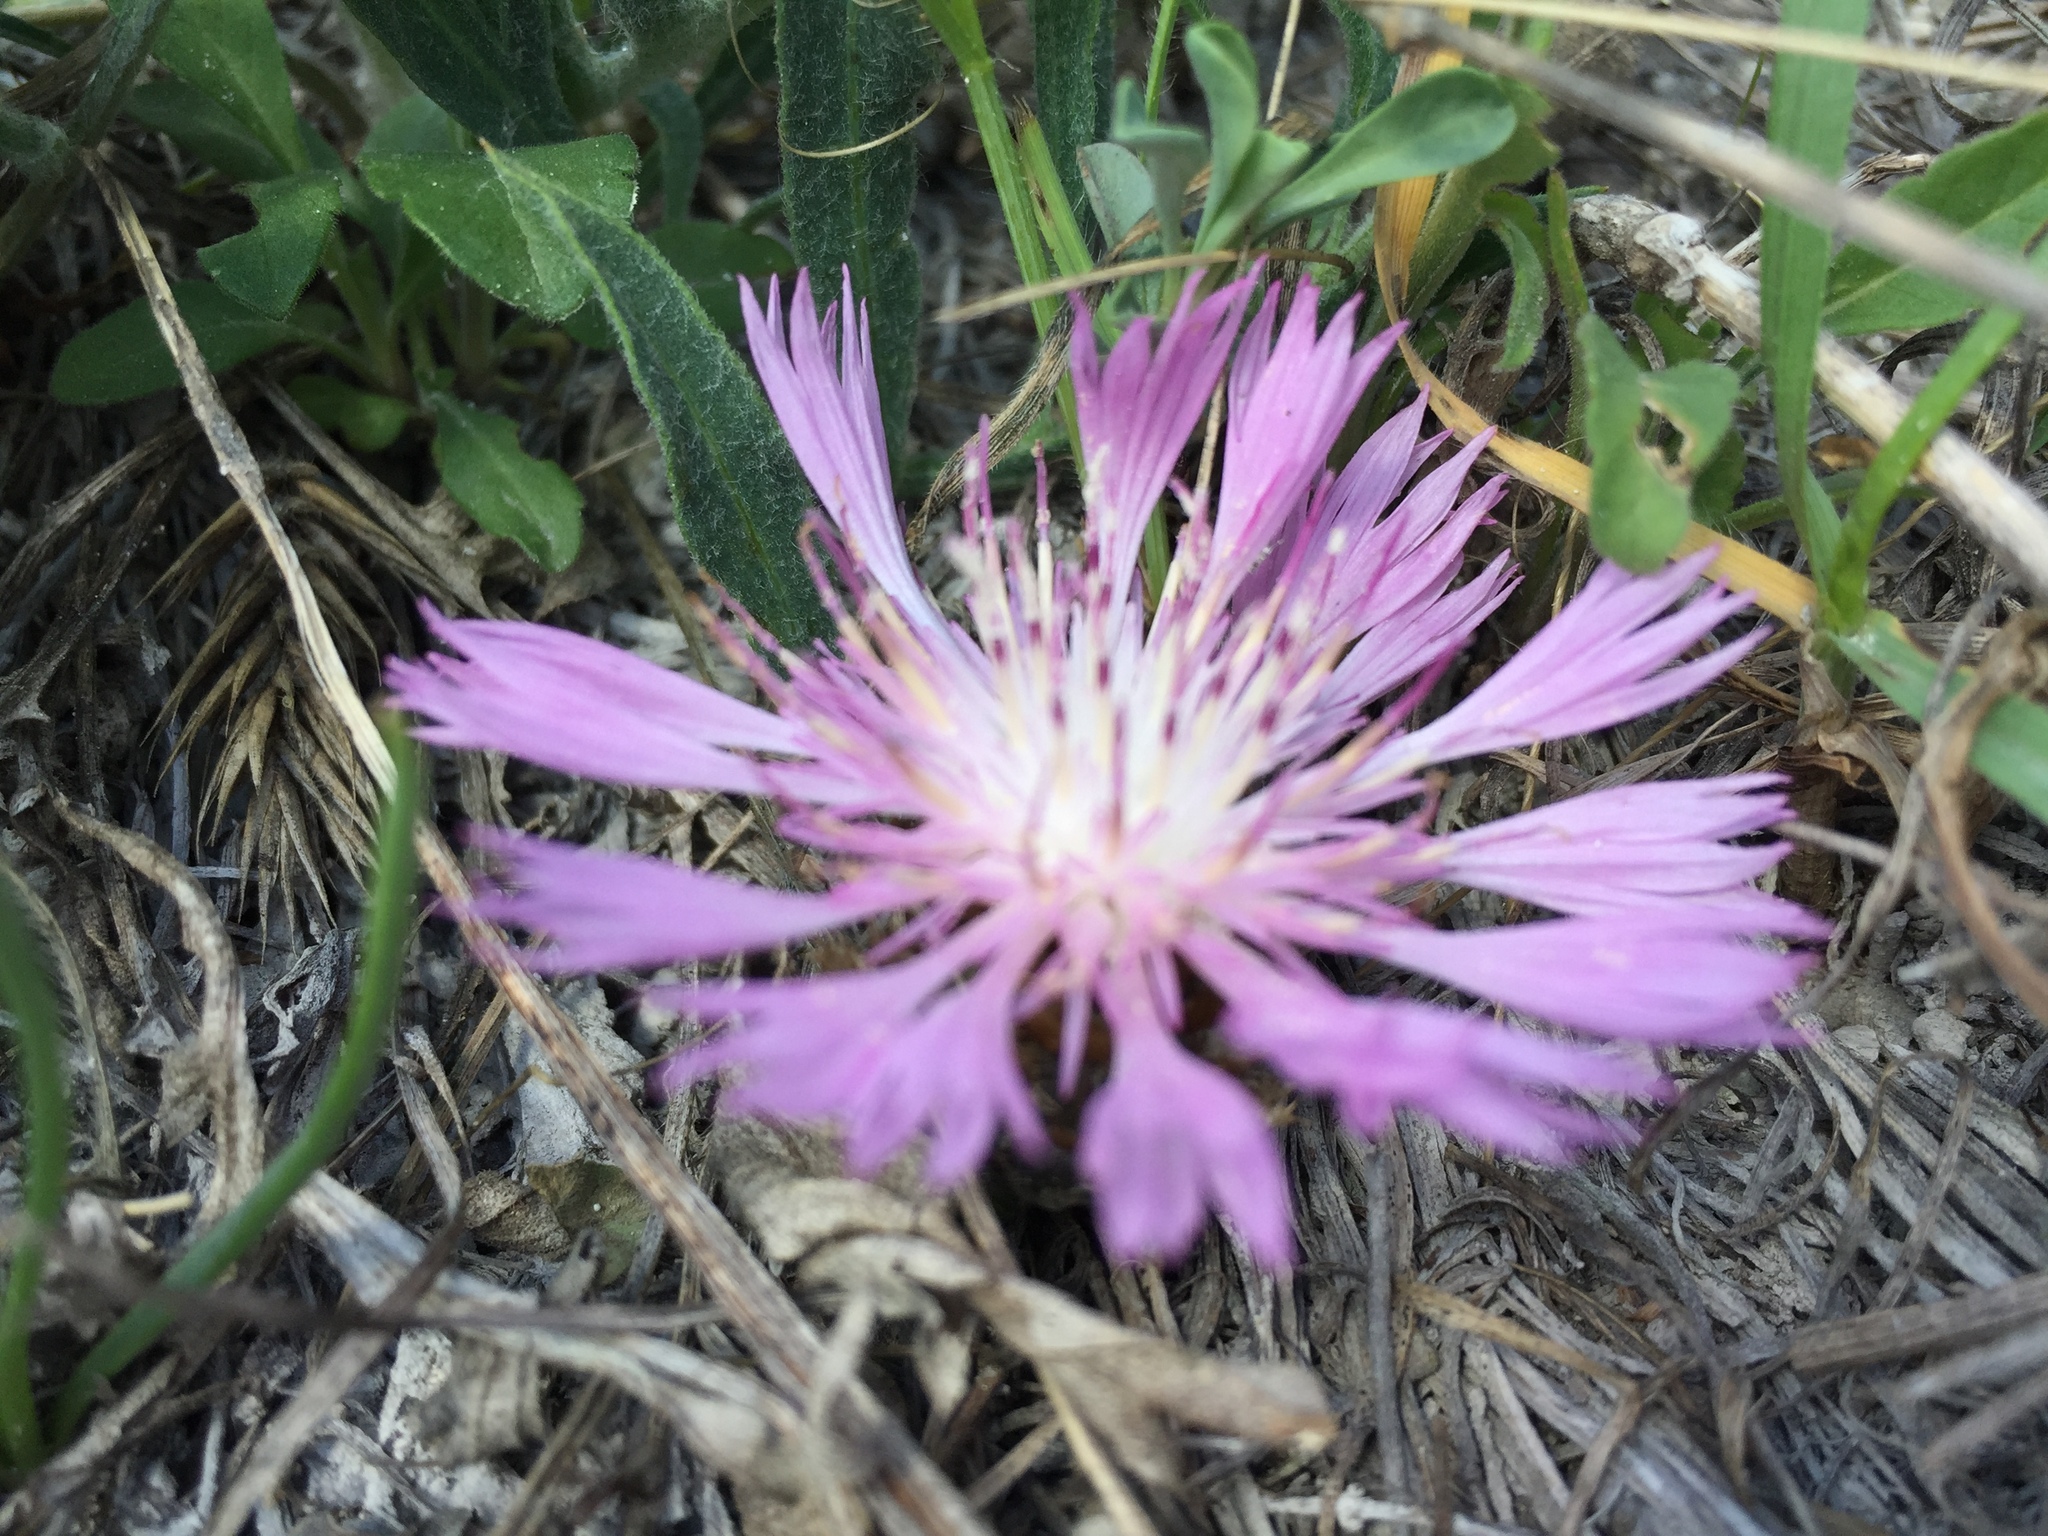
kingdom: Plantae
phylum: Tracheophyta
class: Magnoliopsida
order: Asterales
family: Asteraceae
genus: Psephellus
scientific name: Psephellus marschallianus
